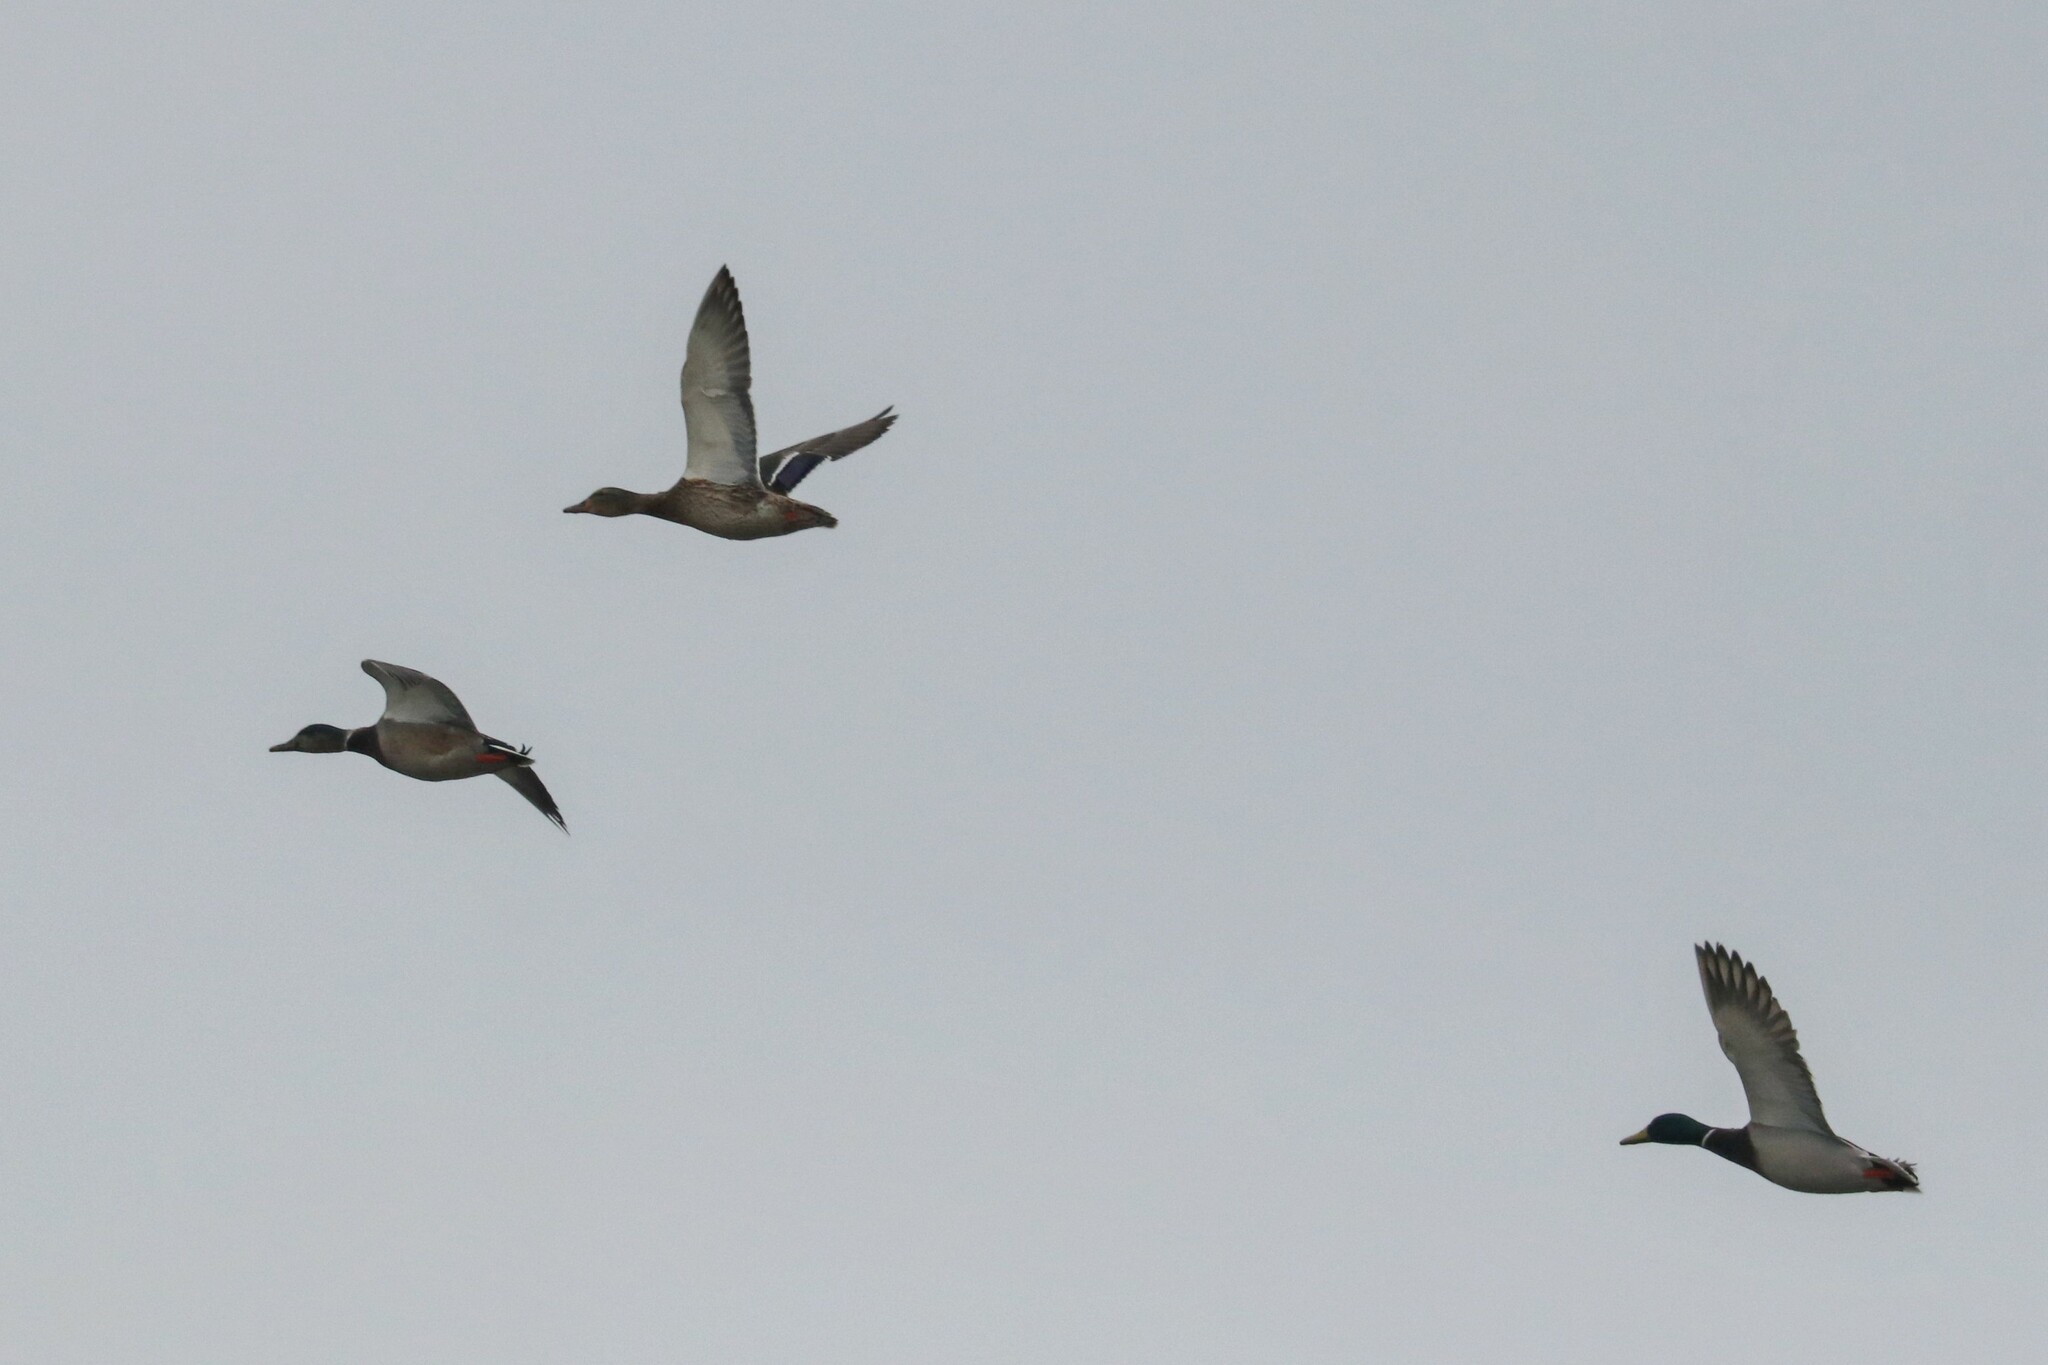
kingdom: Animalia
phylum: Chordata
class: Aves
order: Anseriformes
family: Anatidae
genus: Anas
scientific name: Anas platyrhynchos
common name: Mallard
